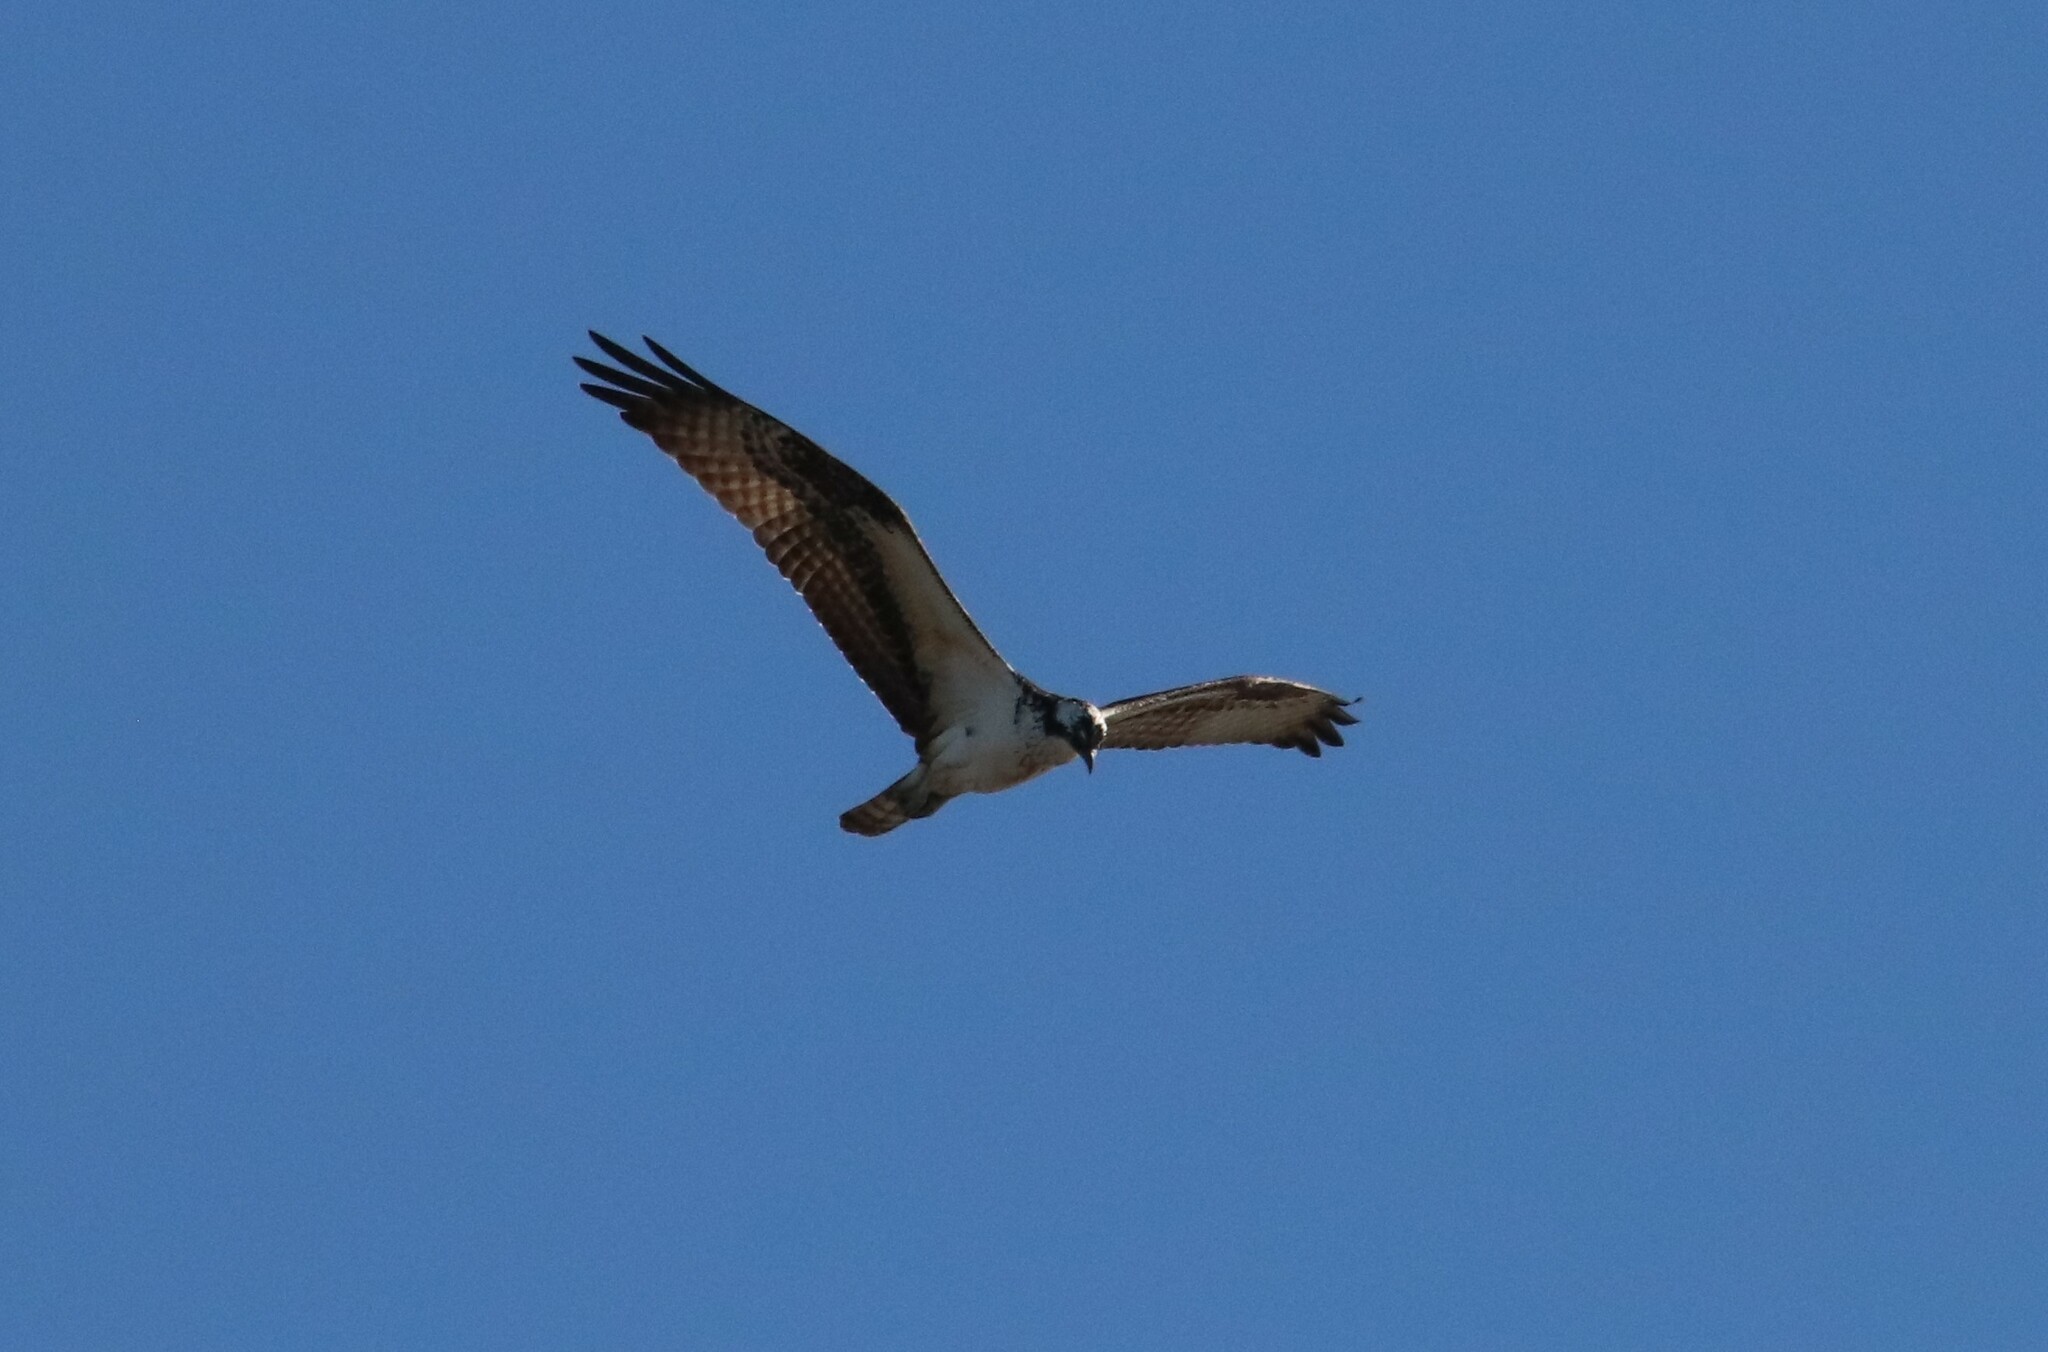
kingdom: Animalia
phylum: Chordata
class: Aves
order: Accipitriformes
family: Pandionidae
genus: Pandion
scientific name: Pandion haliaetus
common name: Osprey
